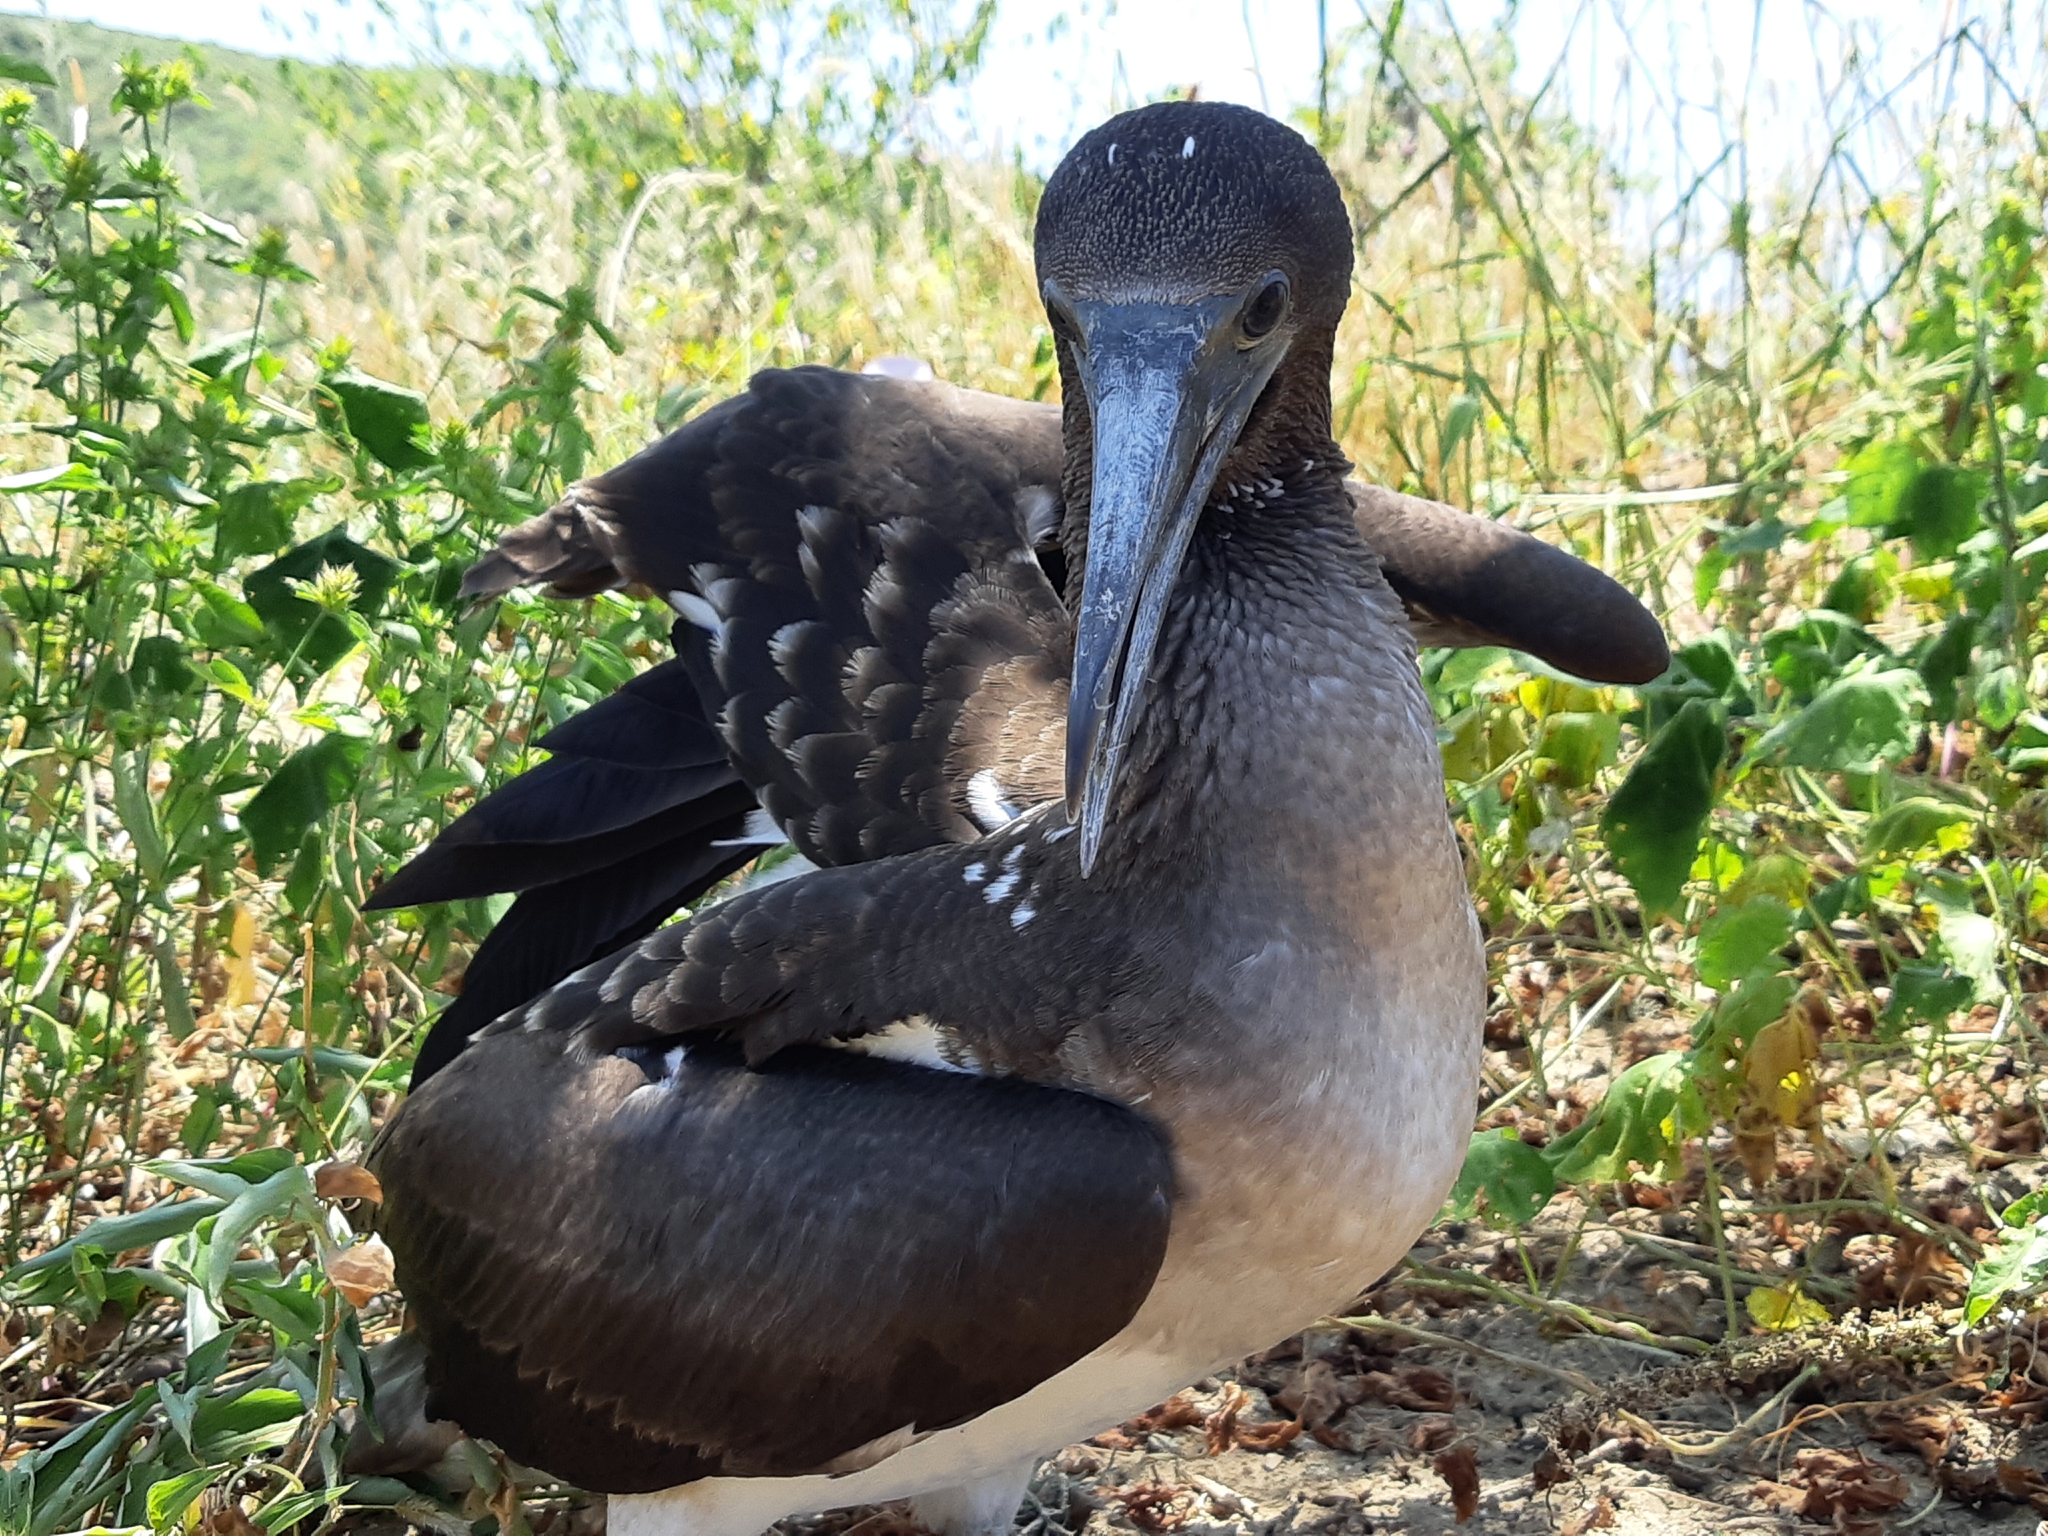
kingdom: Animalia
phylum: Chordata
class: Aves
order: Suliformes
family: Sulidae
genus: Sula
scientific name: Sula nebouxii
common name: Blue-footed booby
